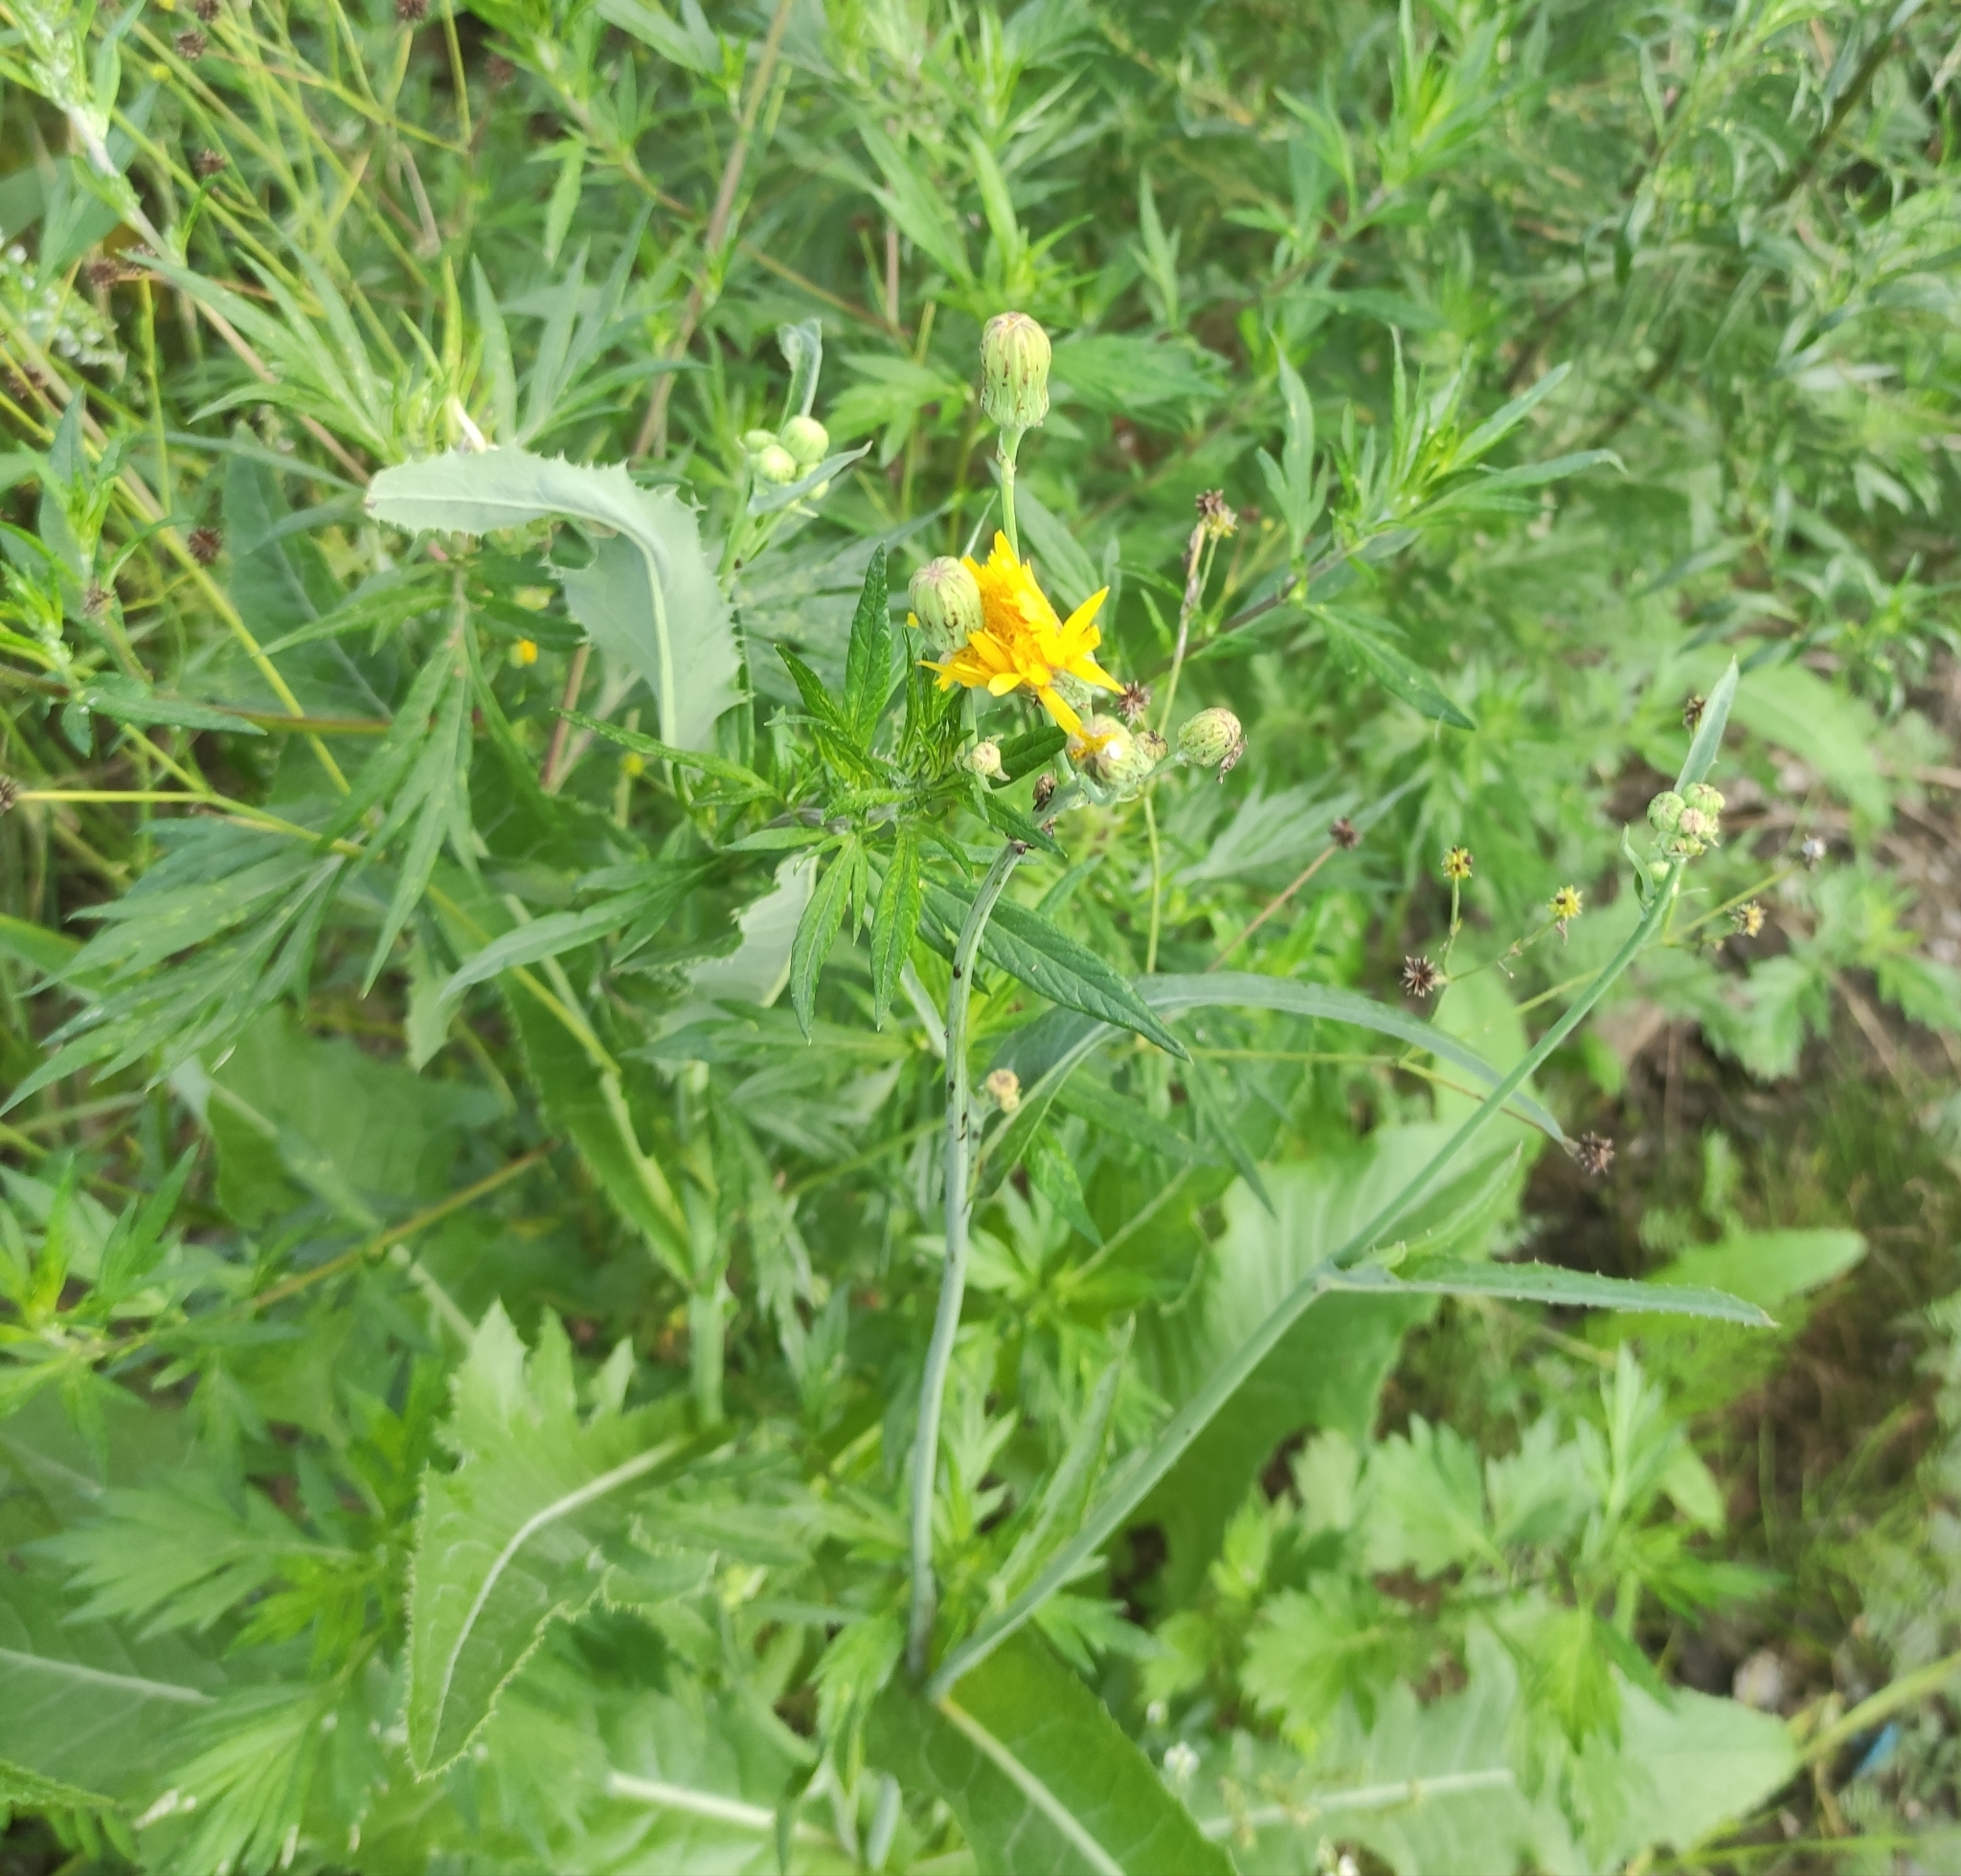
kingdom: Plantae
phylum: Tracheophyta
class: Magnoliopsida
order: Asterales
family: Asteraceae
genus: Sonchus
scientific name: Sonchus arvensis
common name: Perennial sow-thistle
